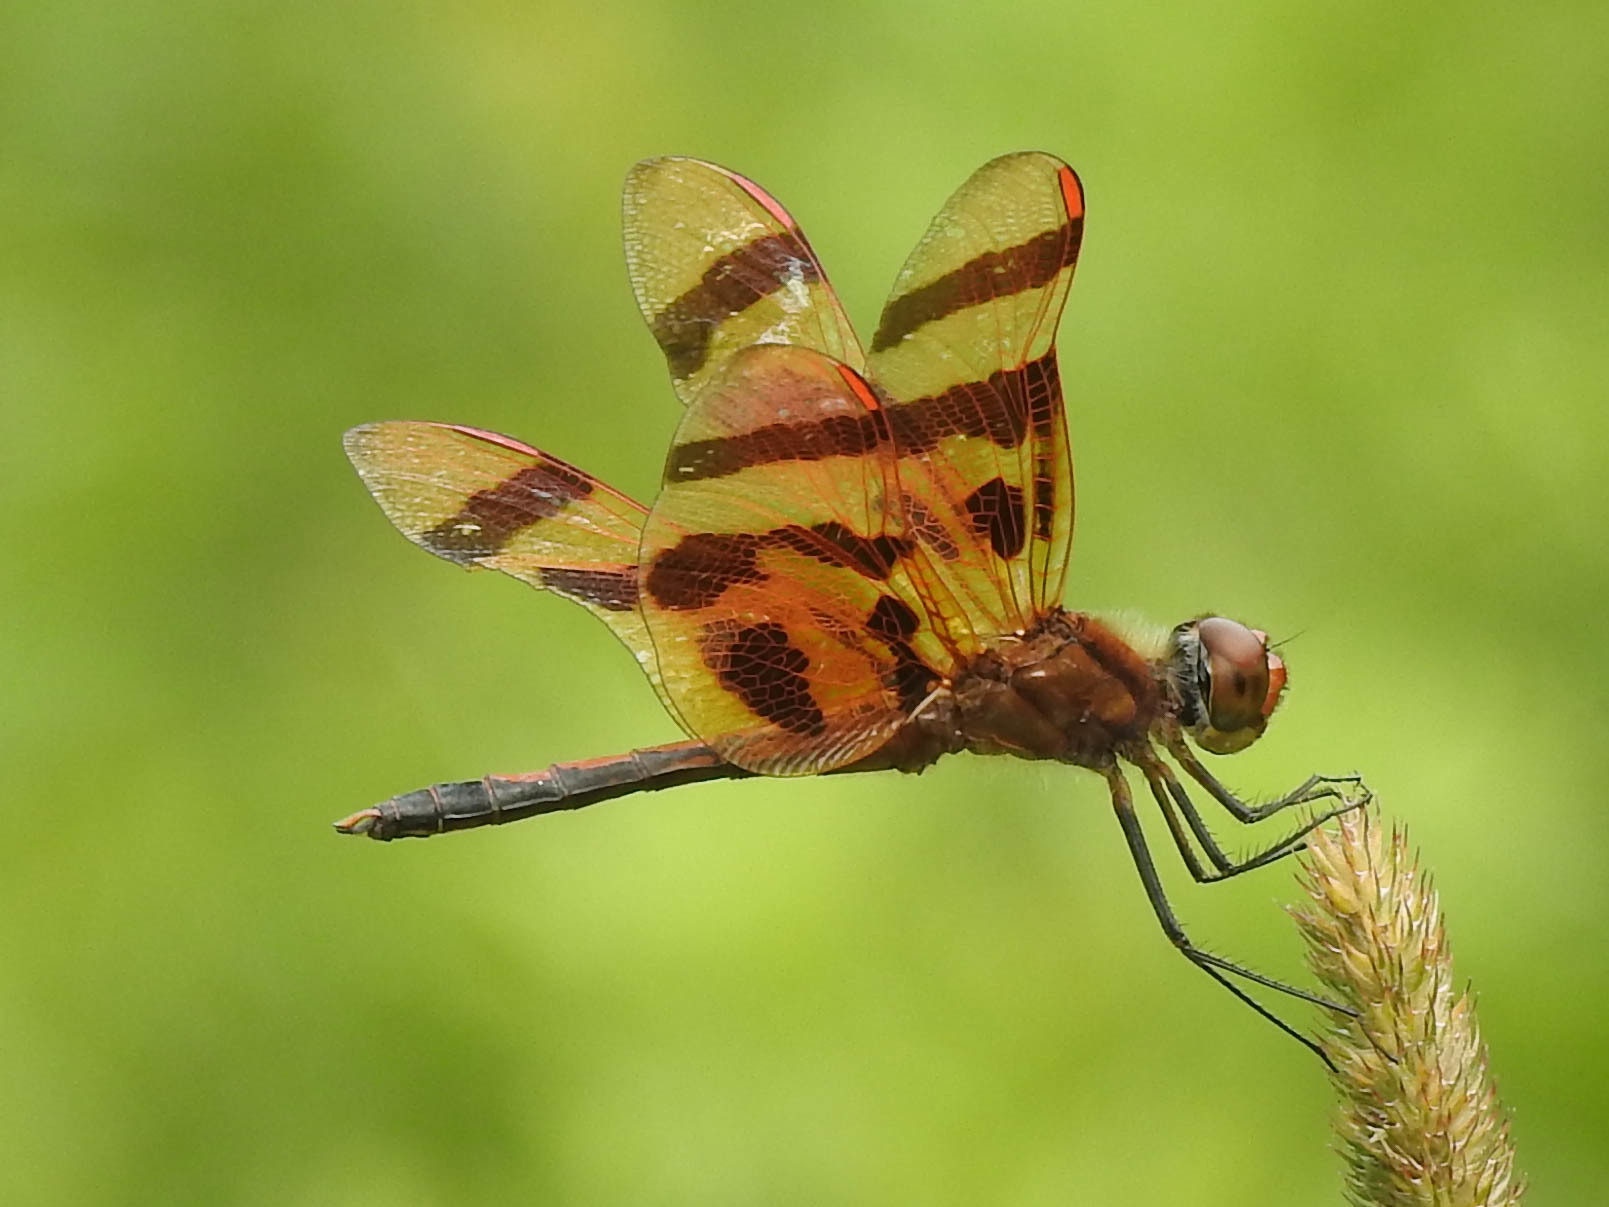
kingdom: Animalia
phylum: Arthropoda
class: Insecta
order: Odonata
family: Libellulidae
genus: Celithemis
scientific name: Celithemis eponina
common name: Halloween pennant
